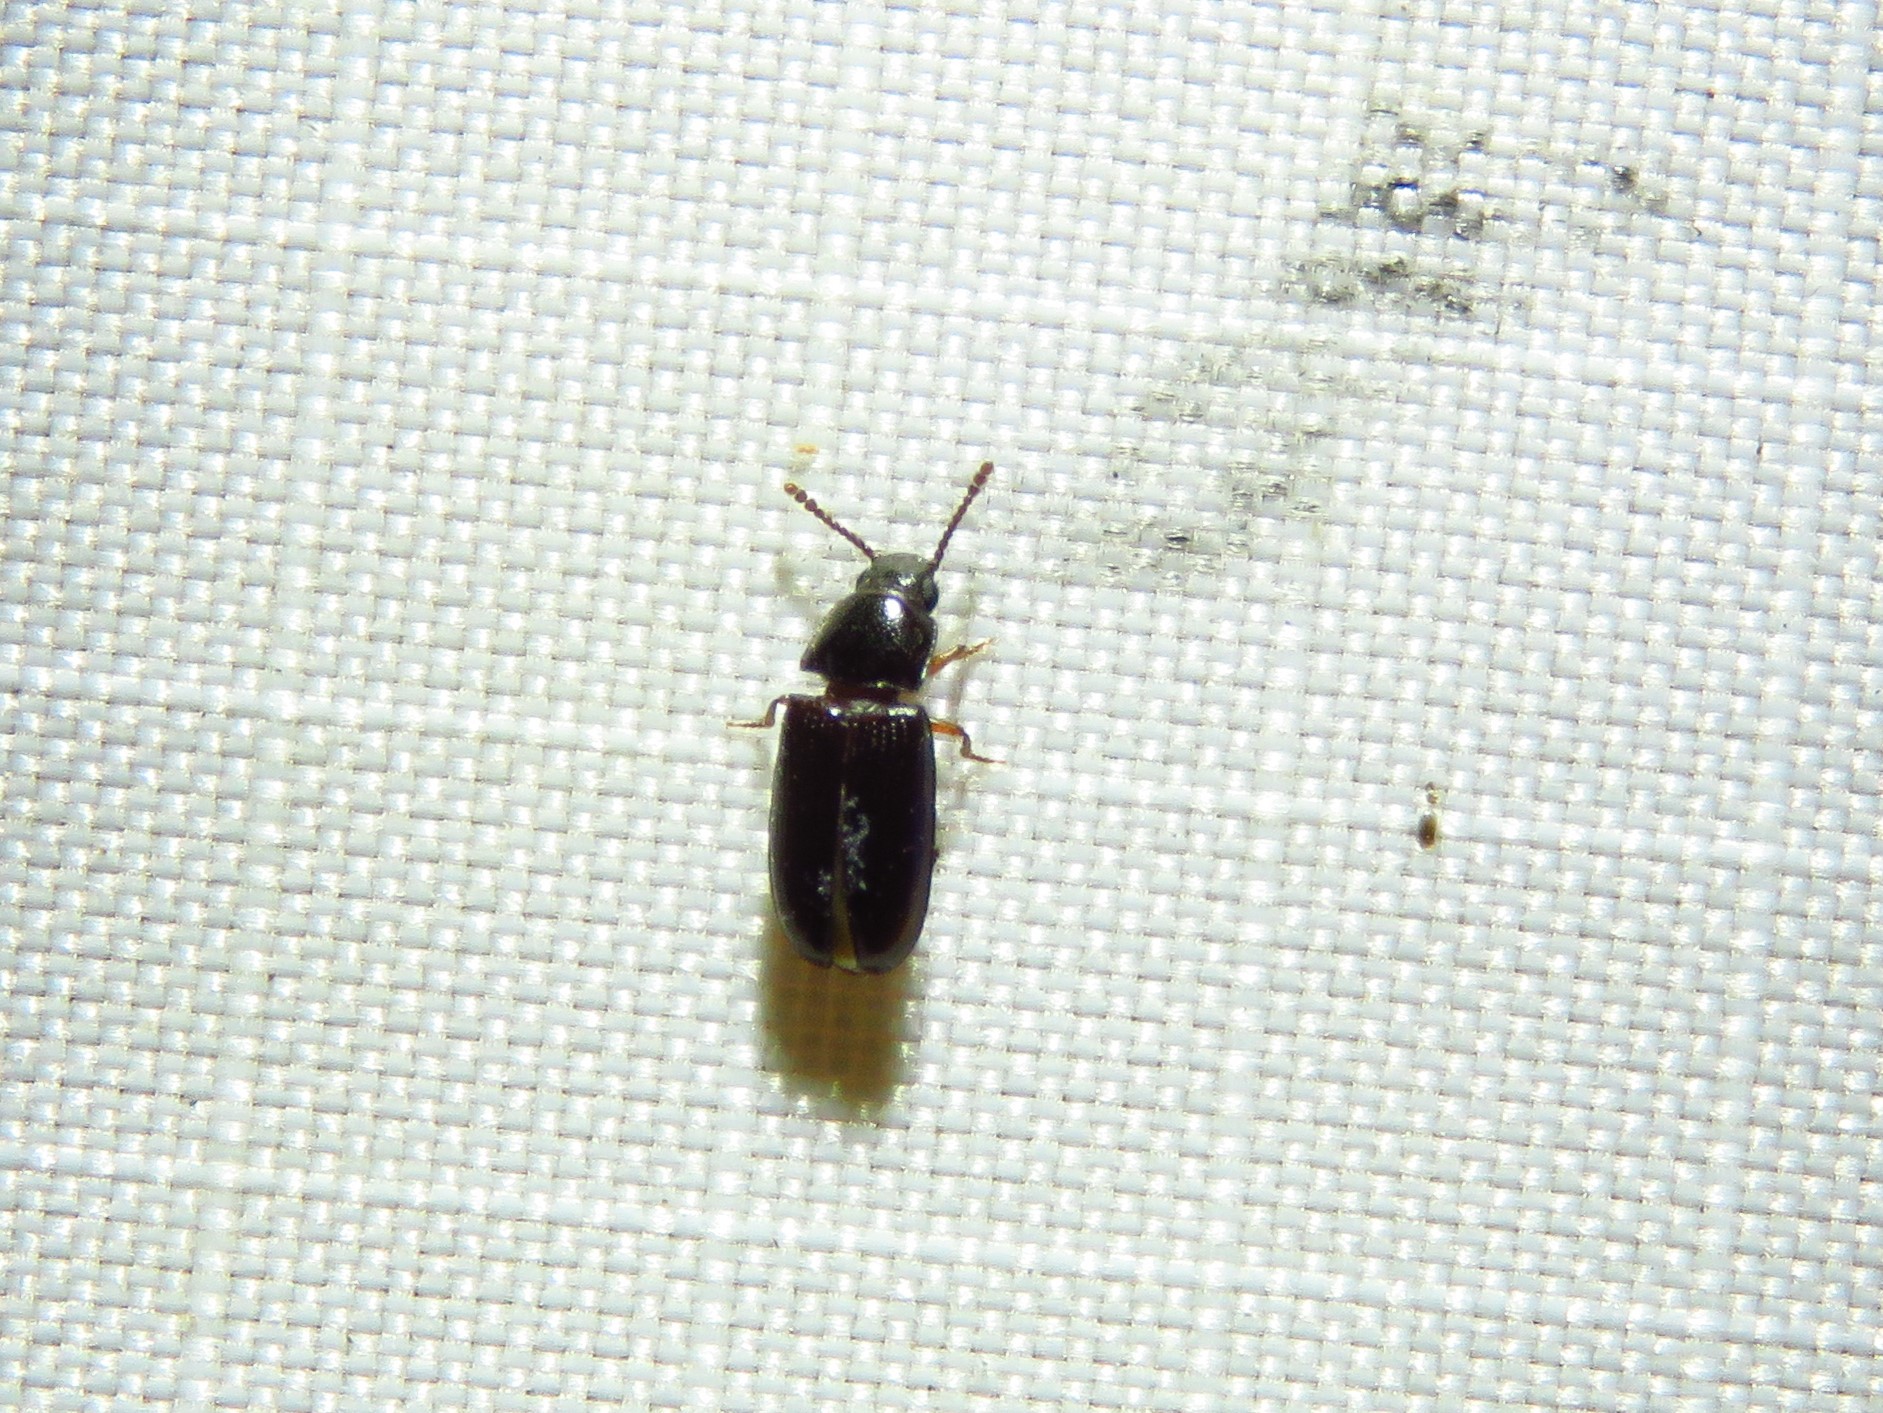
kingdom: Animalia
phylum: Arthropoda
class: Insecta
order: Coleoptera
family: Erotylidae
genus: Pharaxonotha
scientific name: Pharaxonotha kirschii
